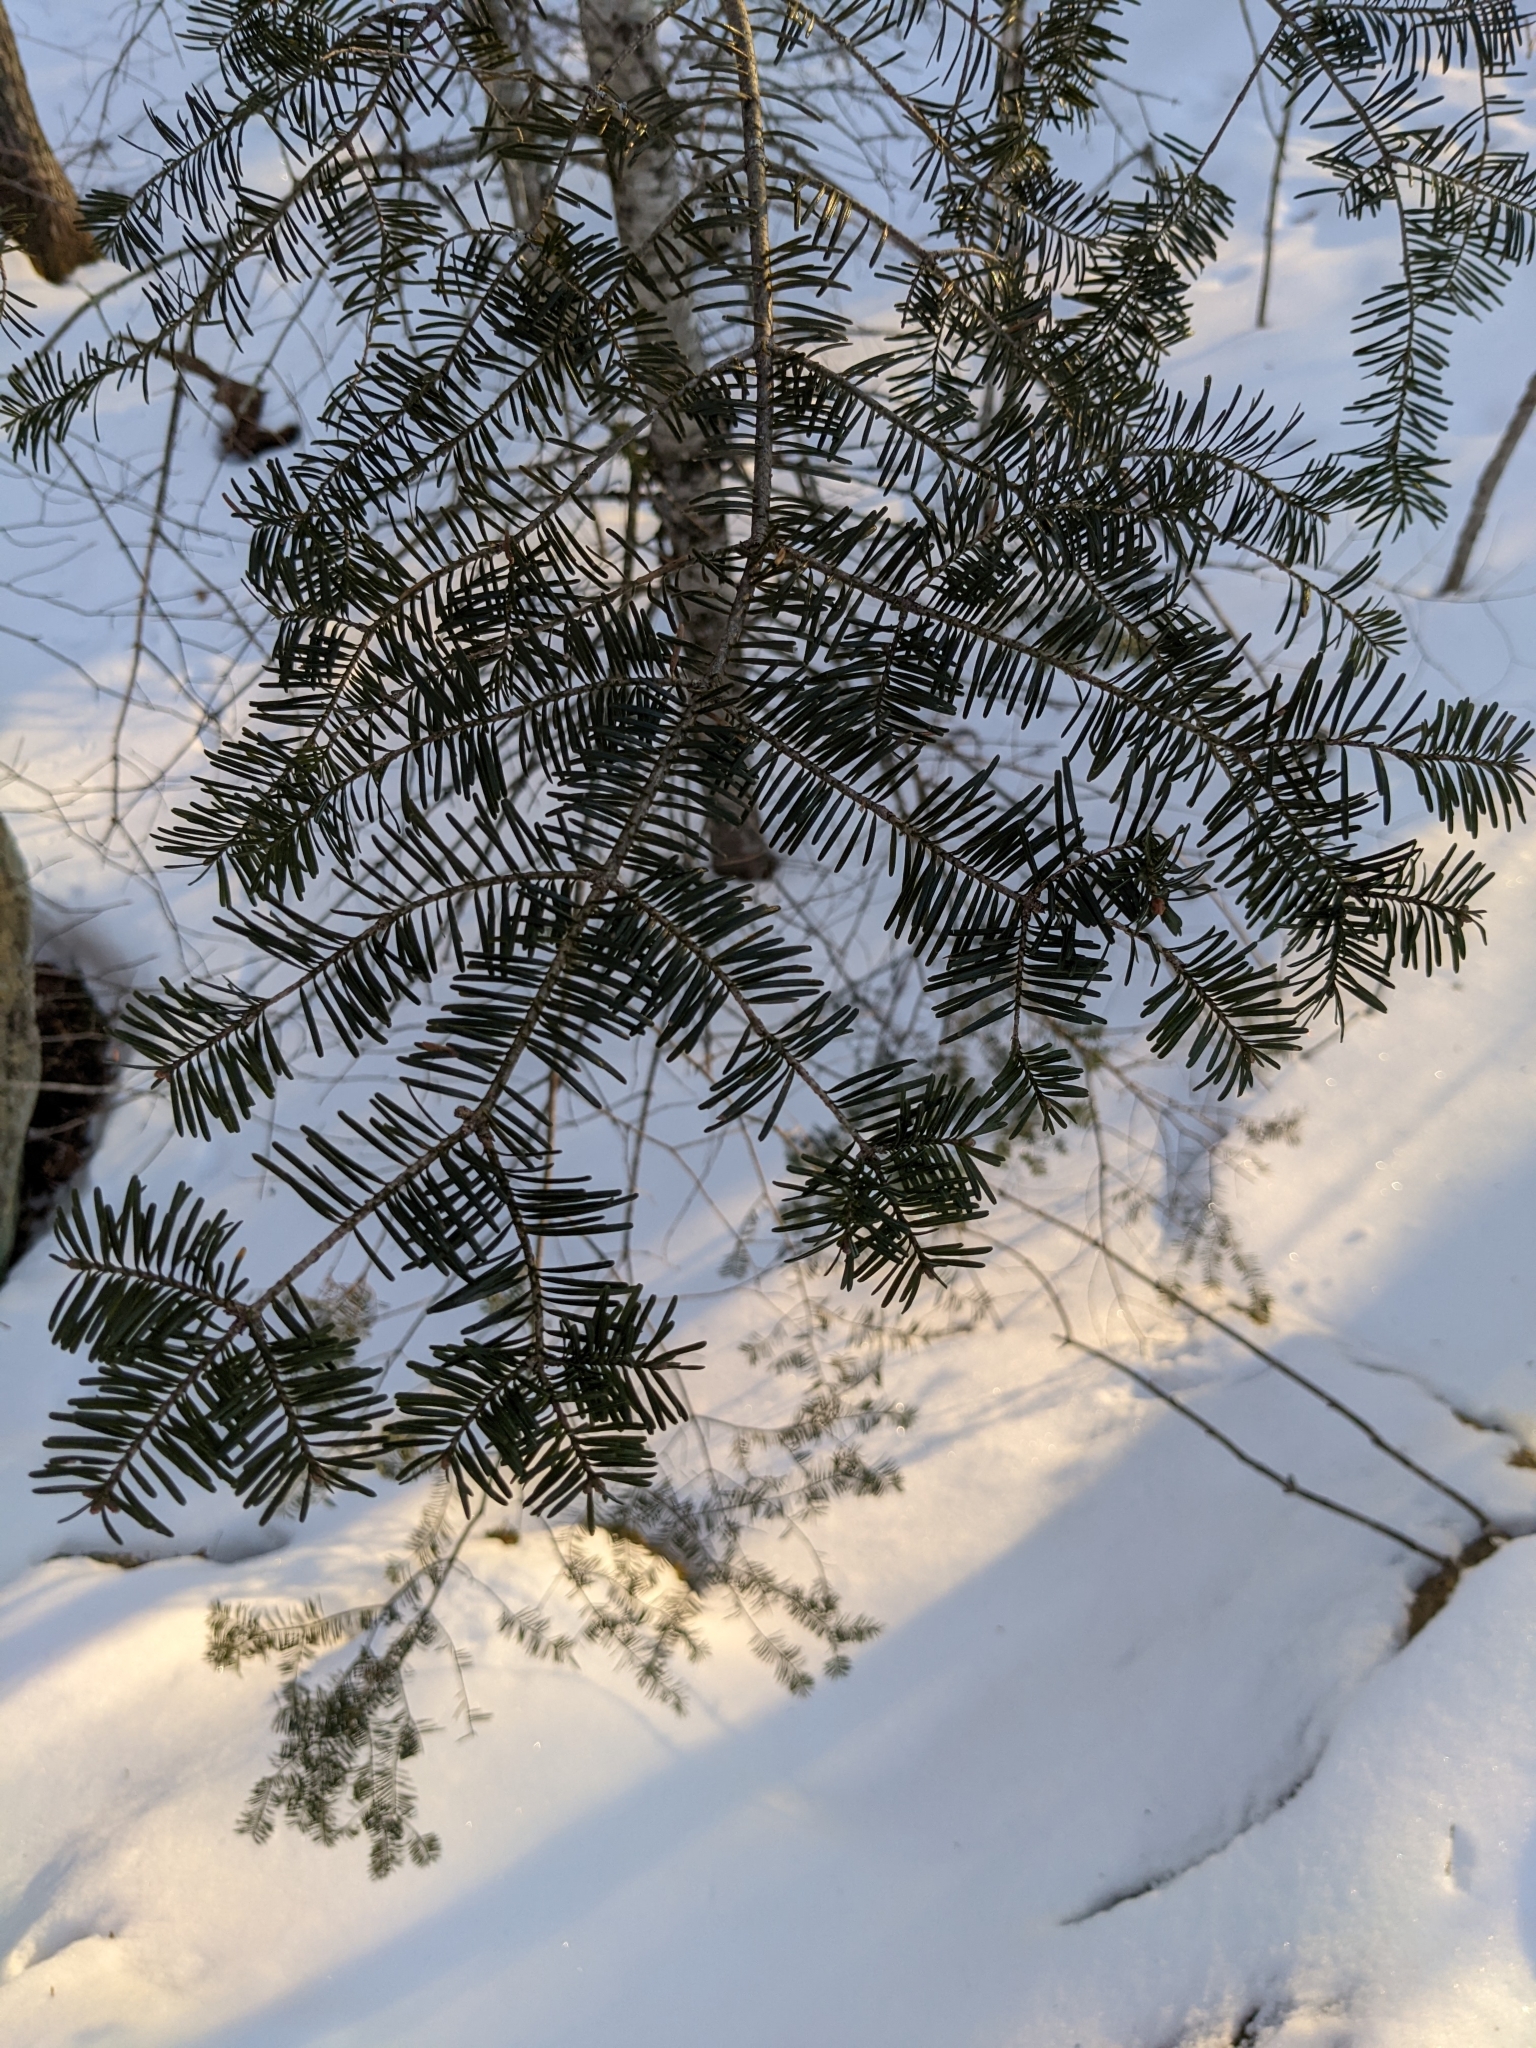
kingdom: Plantae
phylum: Tracheophyta
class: Pinopsida
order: Pinales
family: Pinaceae
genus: Abies
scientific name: Abies balsamea
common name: Balsam fir
